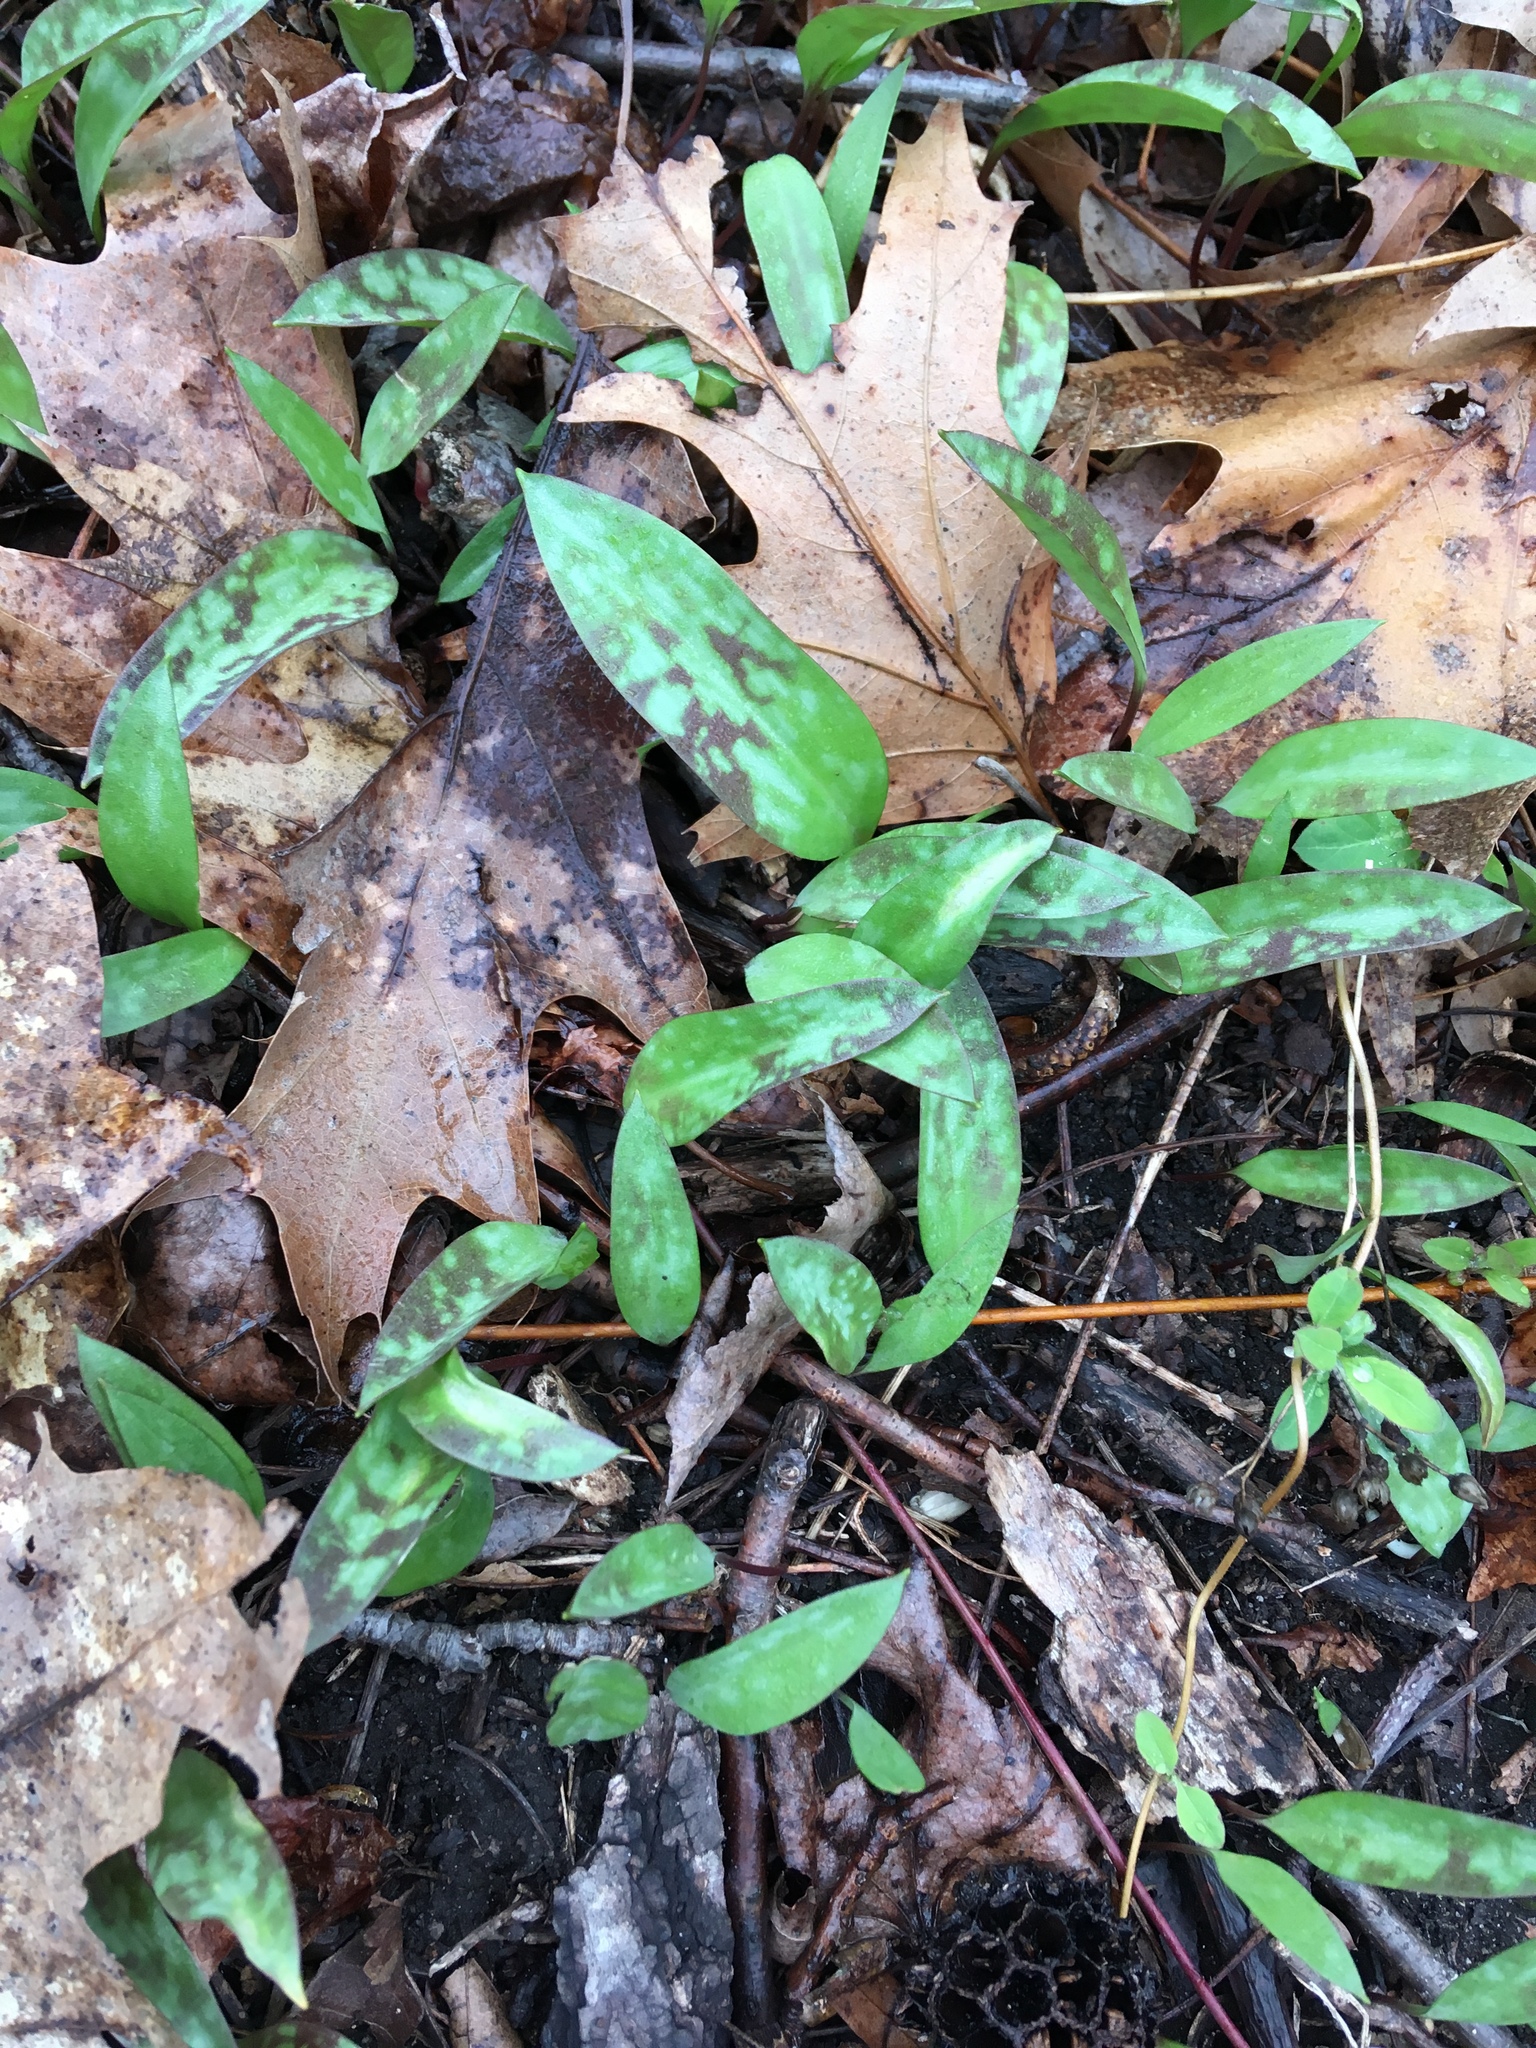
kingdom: Plantae
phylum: Tracheophyta
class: Liliopsida
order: Liliales
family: Liliaceae
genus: Erythronium
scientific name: Erythronium americanum
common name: Yellow adder's-tongue
